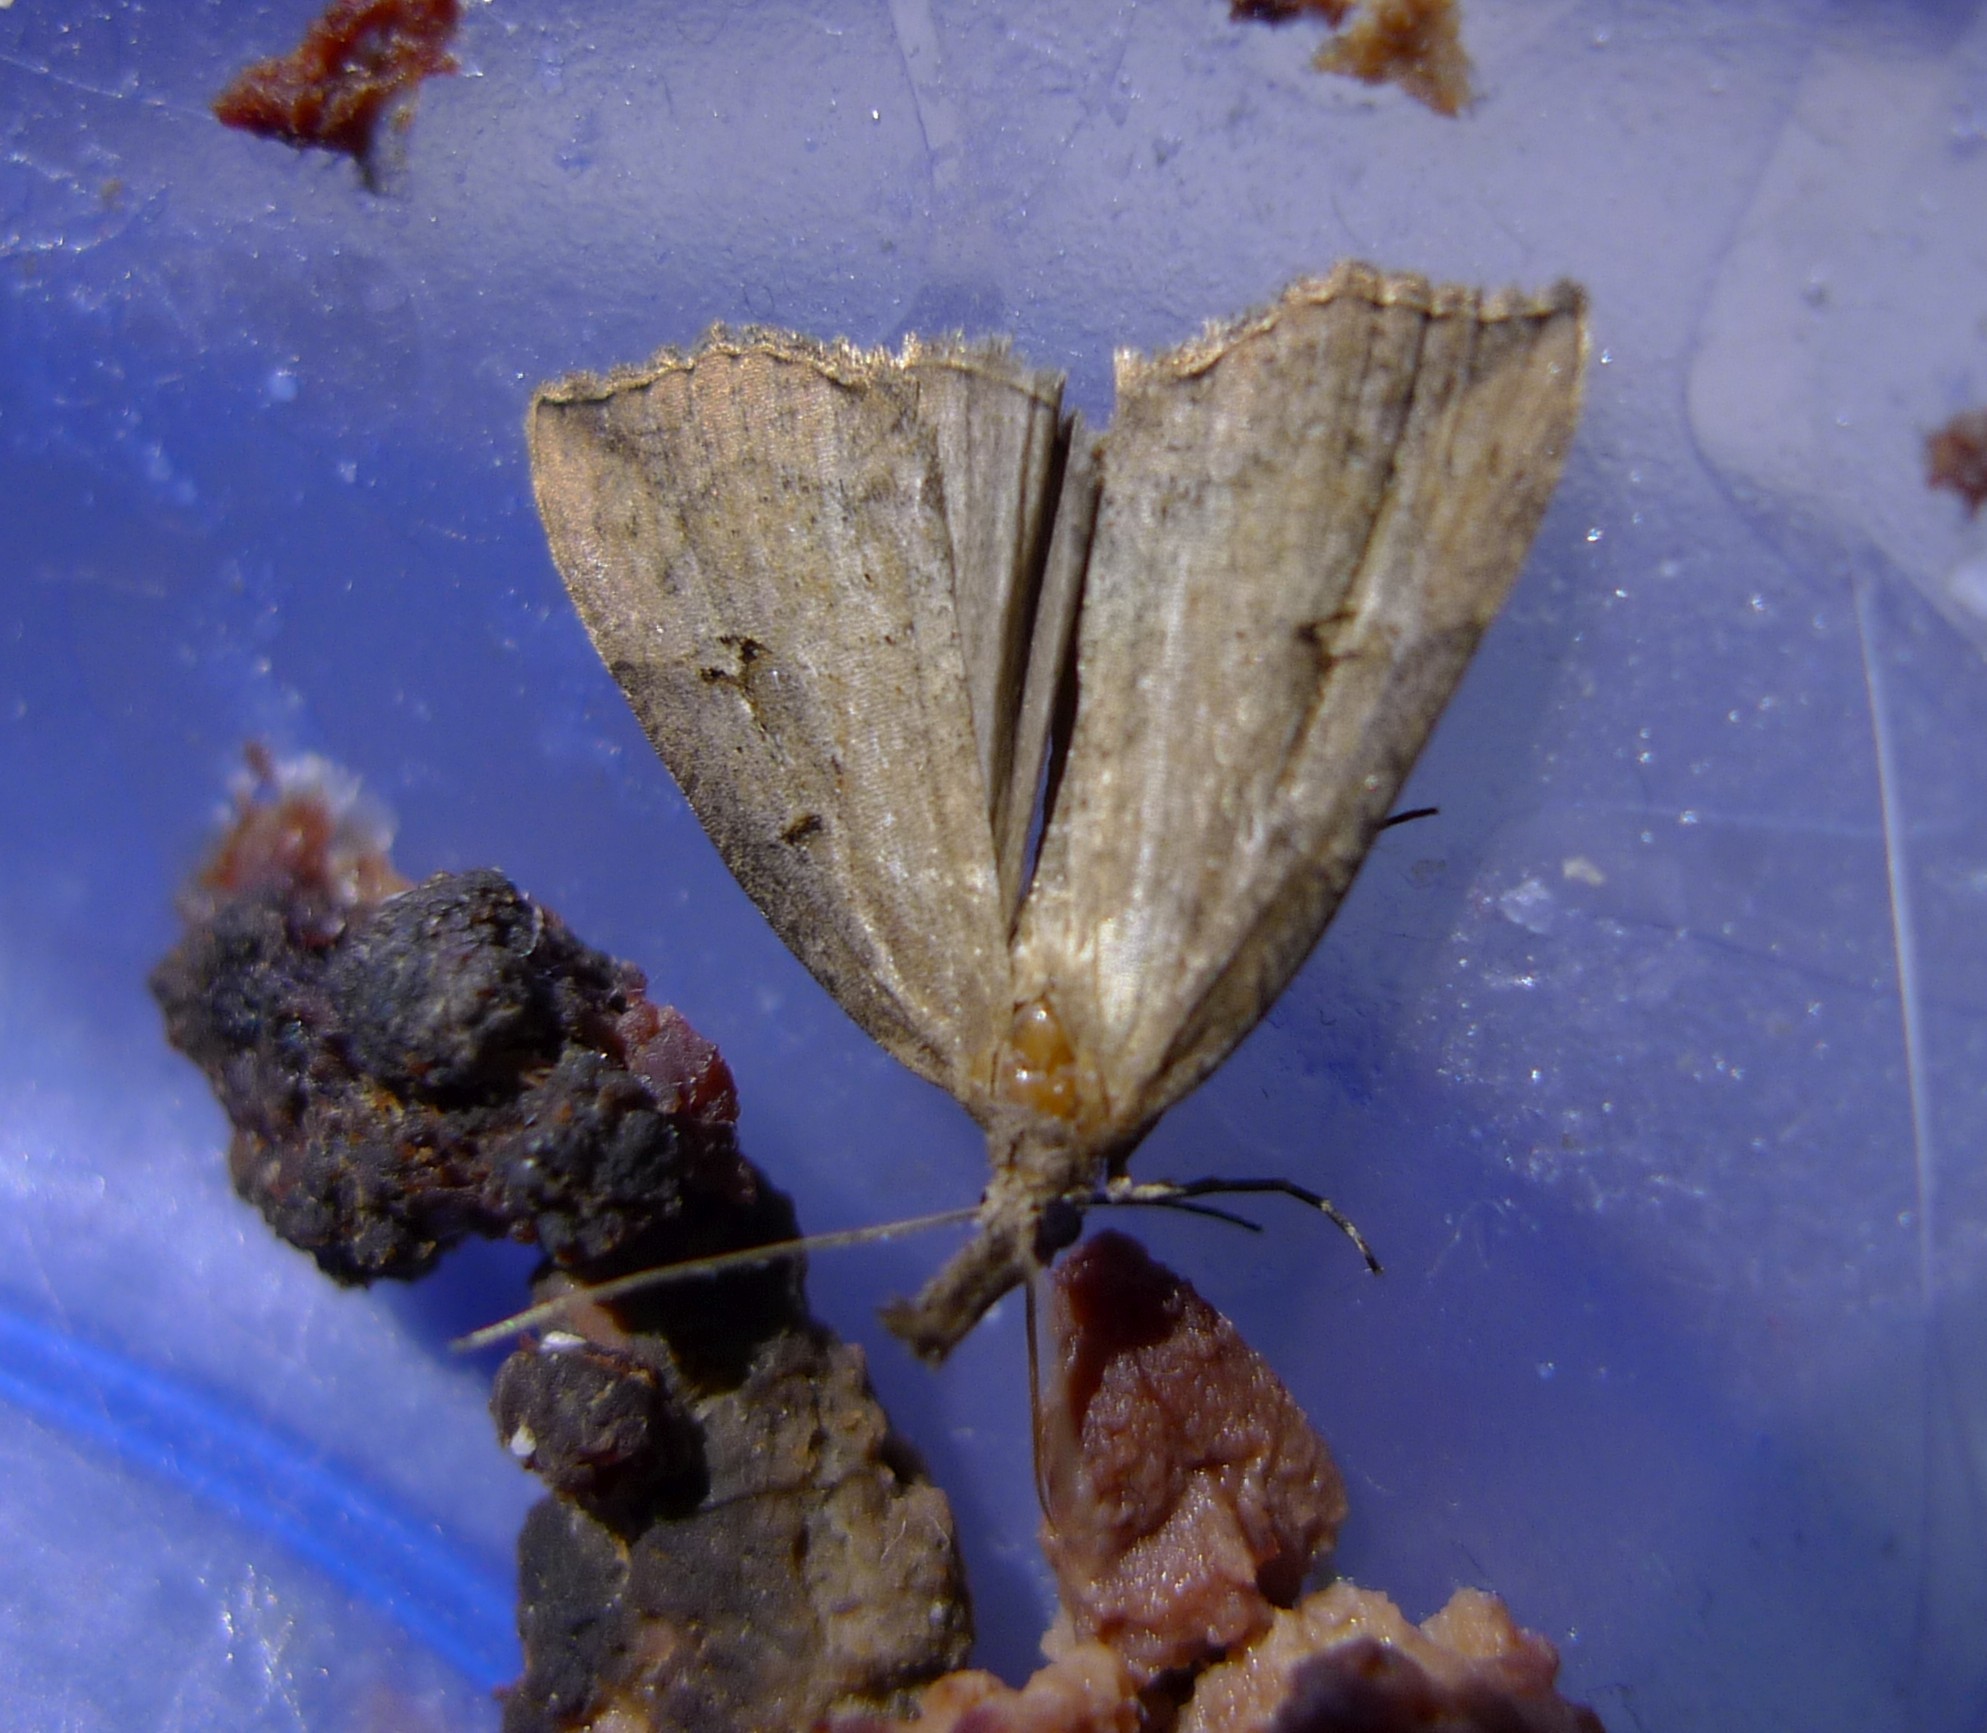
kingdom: Animalia
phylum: Arthropoda
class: Insecta
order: Lepidoptera
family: Erebidae
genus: Hypena
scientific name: Hypena rostralis
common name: Buttoned snout
